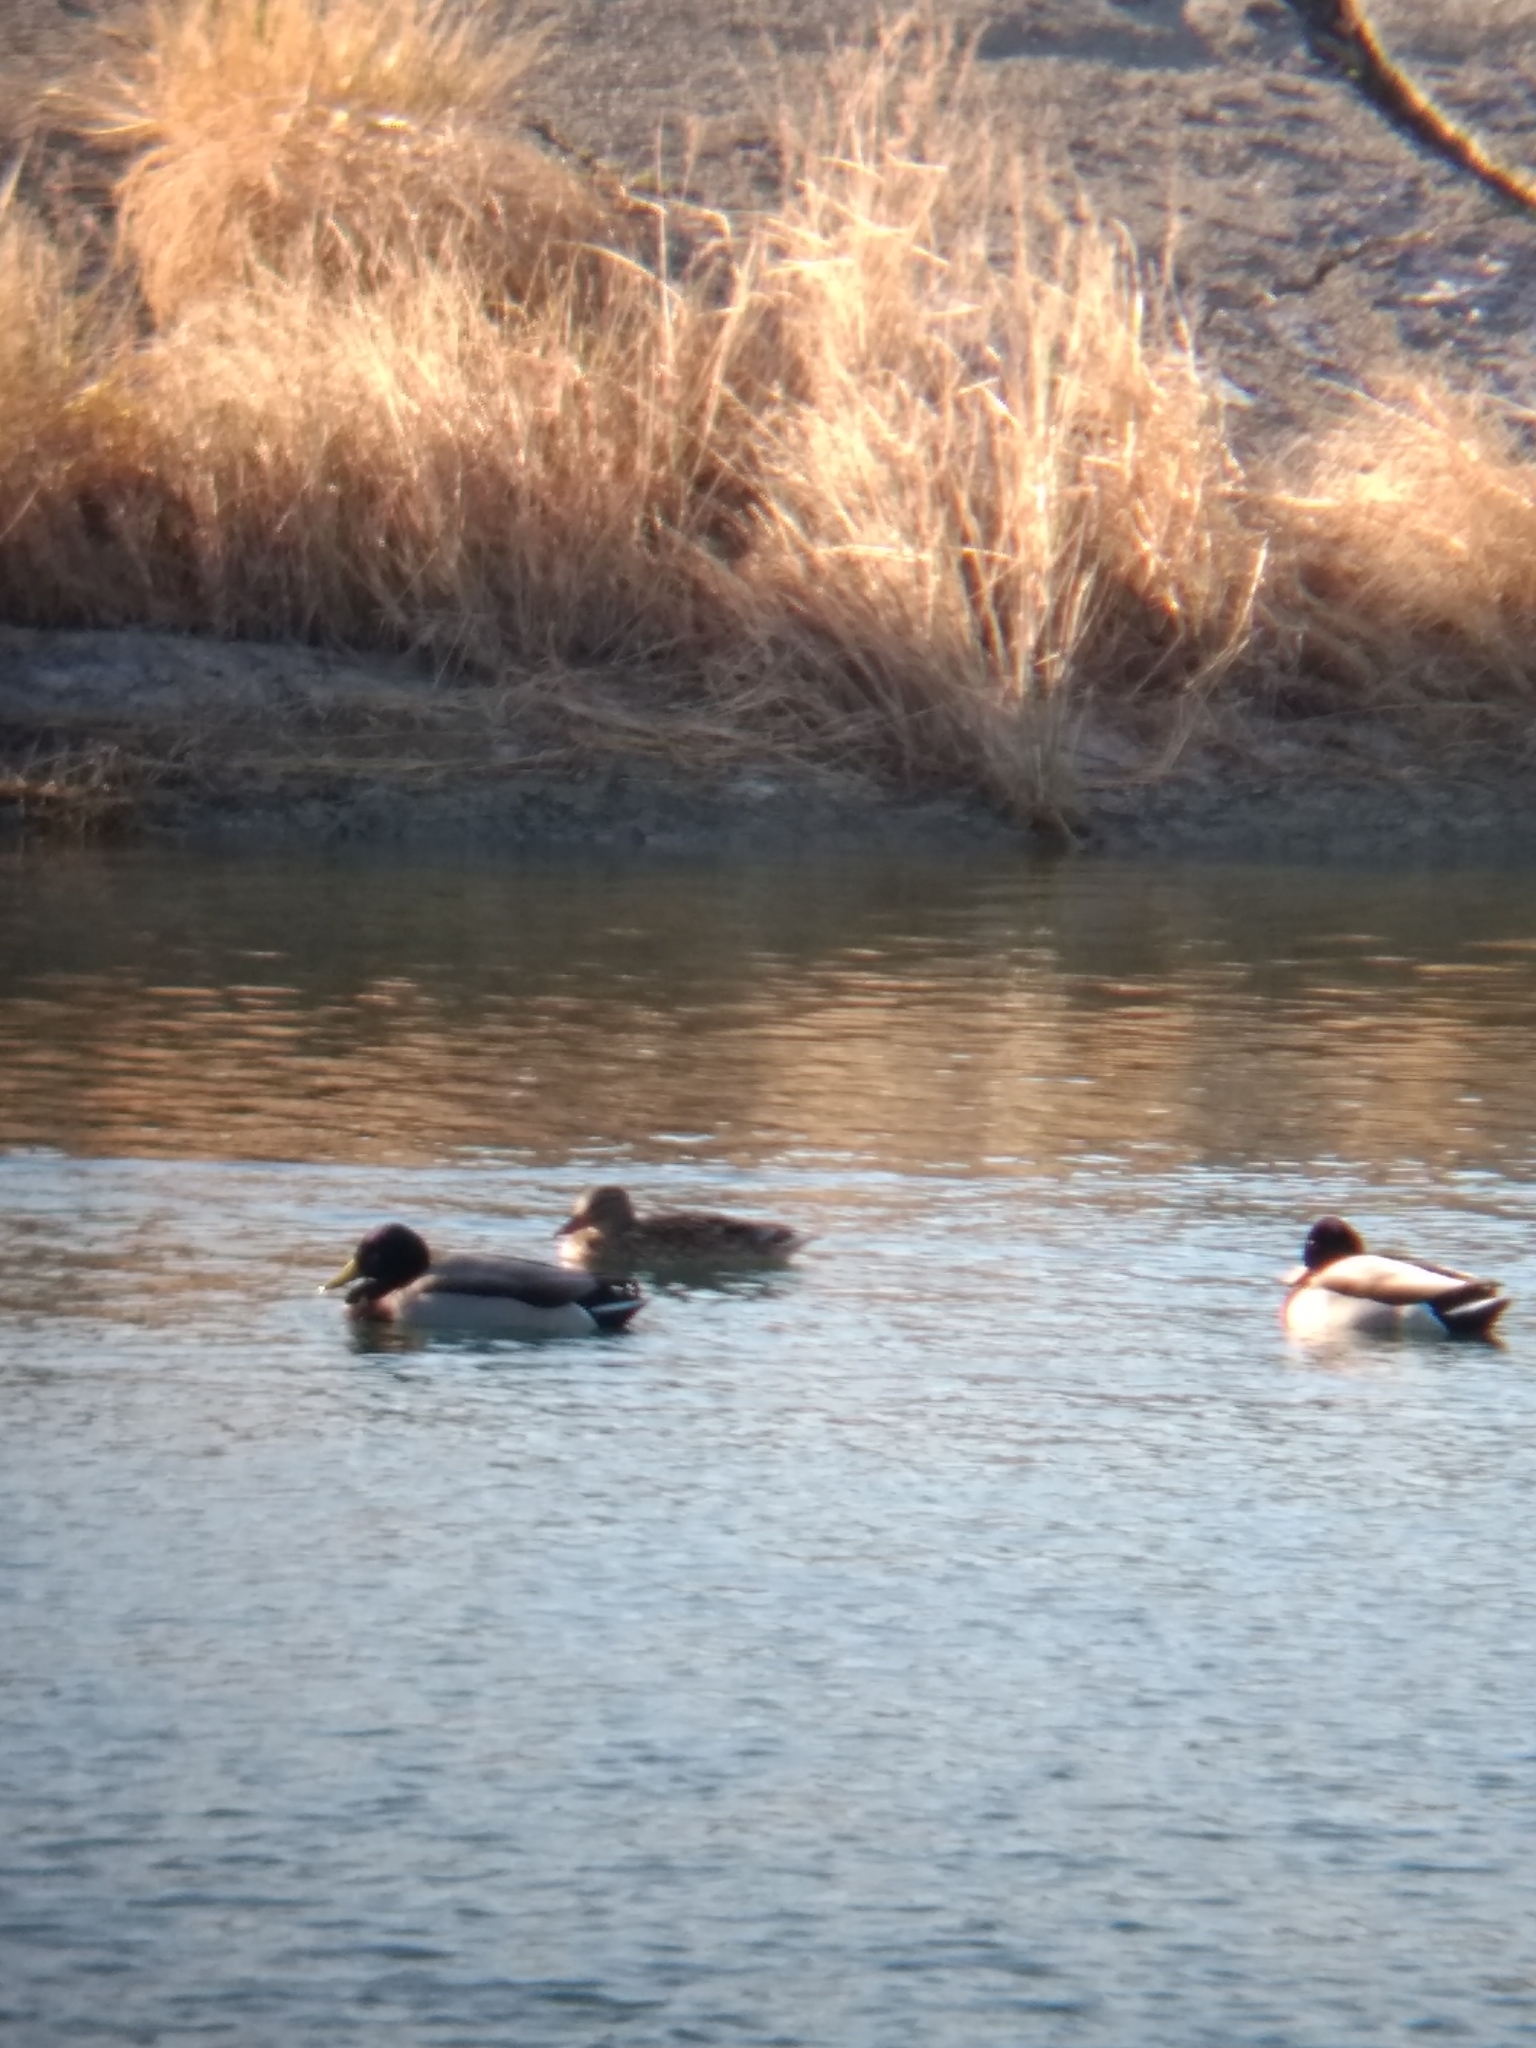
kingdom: Animalia
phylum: Chordata
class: Aves
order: Anseriformes
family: Anatidae
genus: Anas
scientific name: Anas platyrhynchos
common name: Mallard
